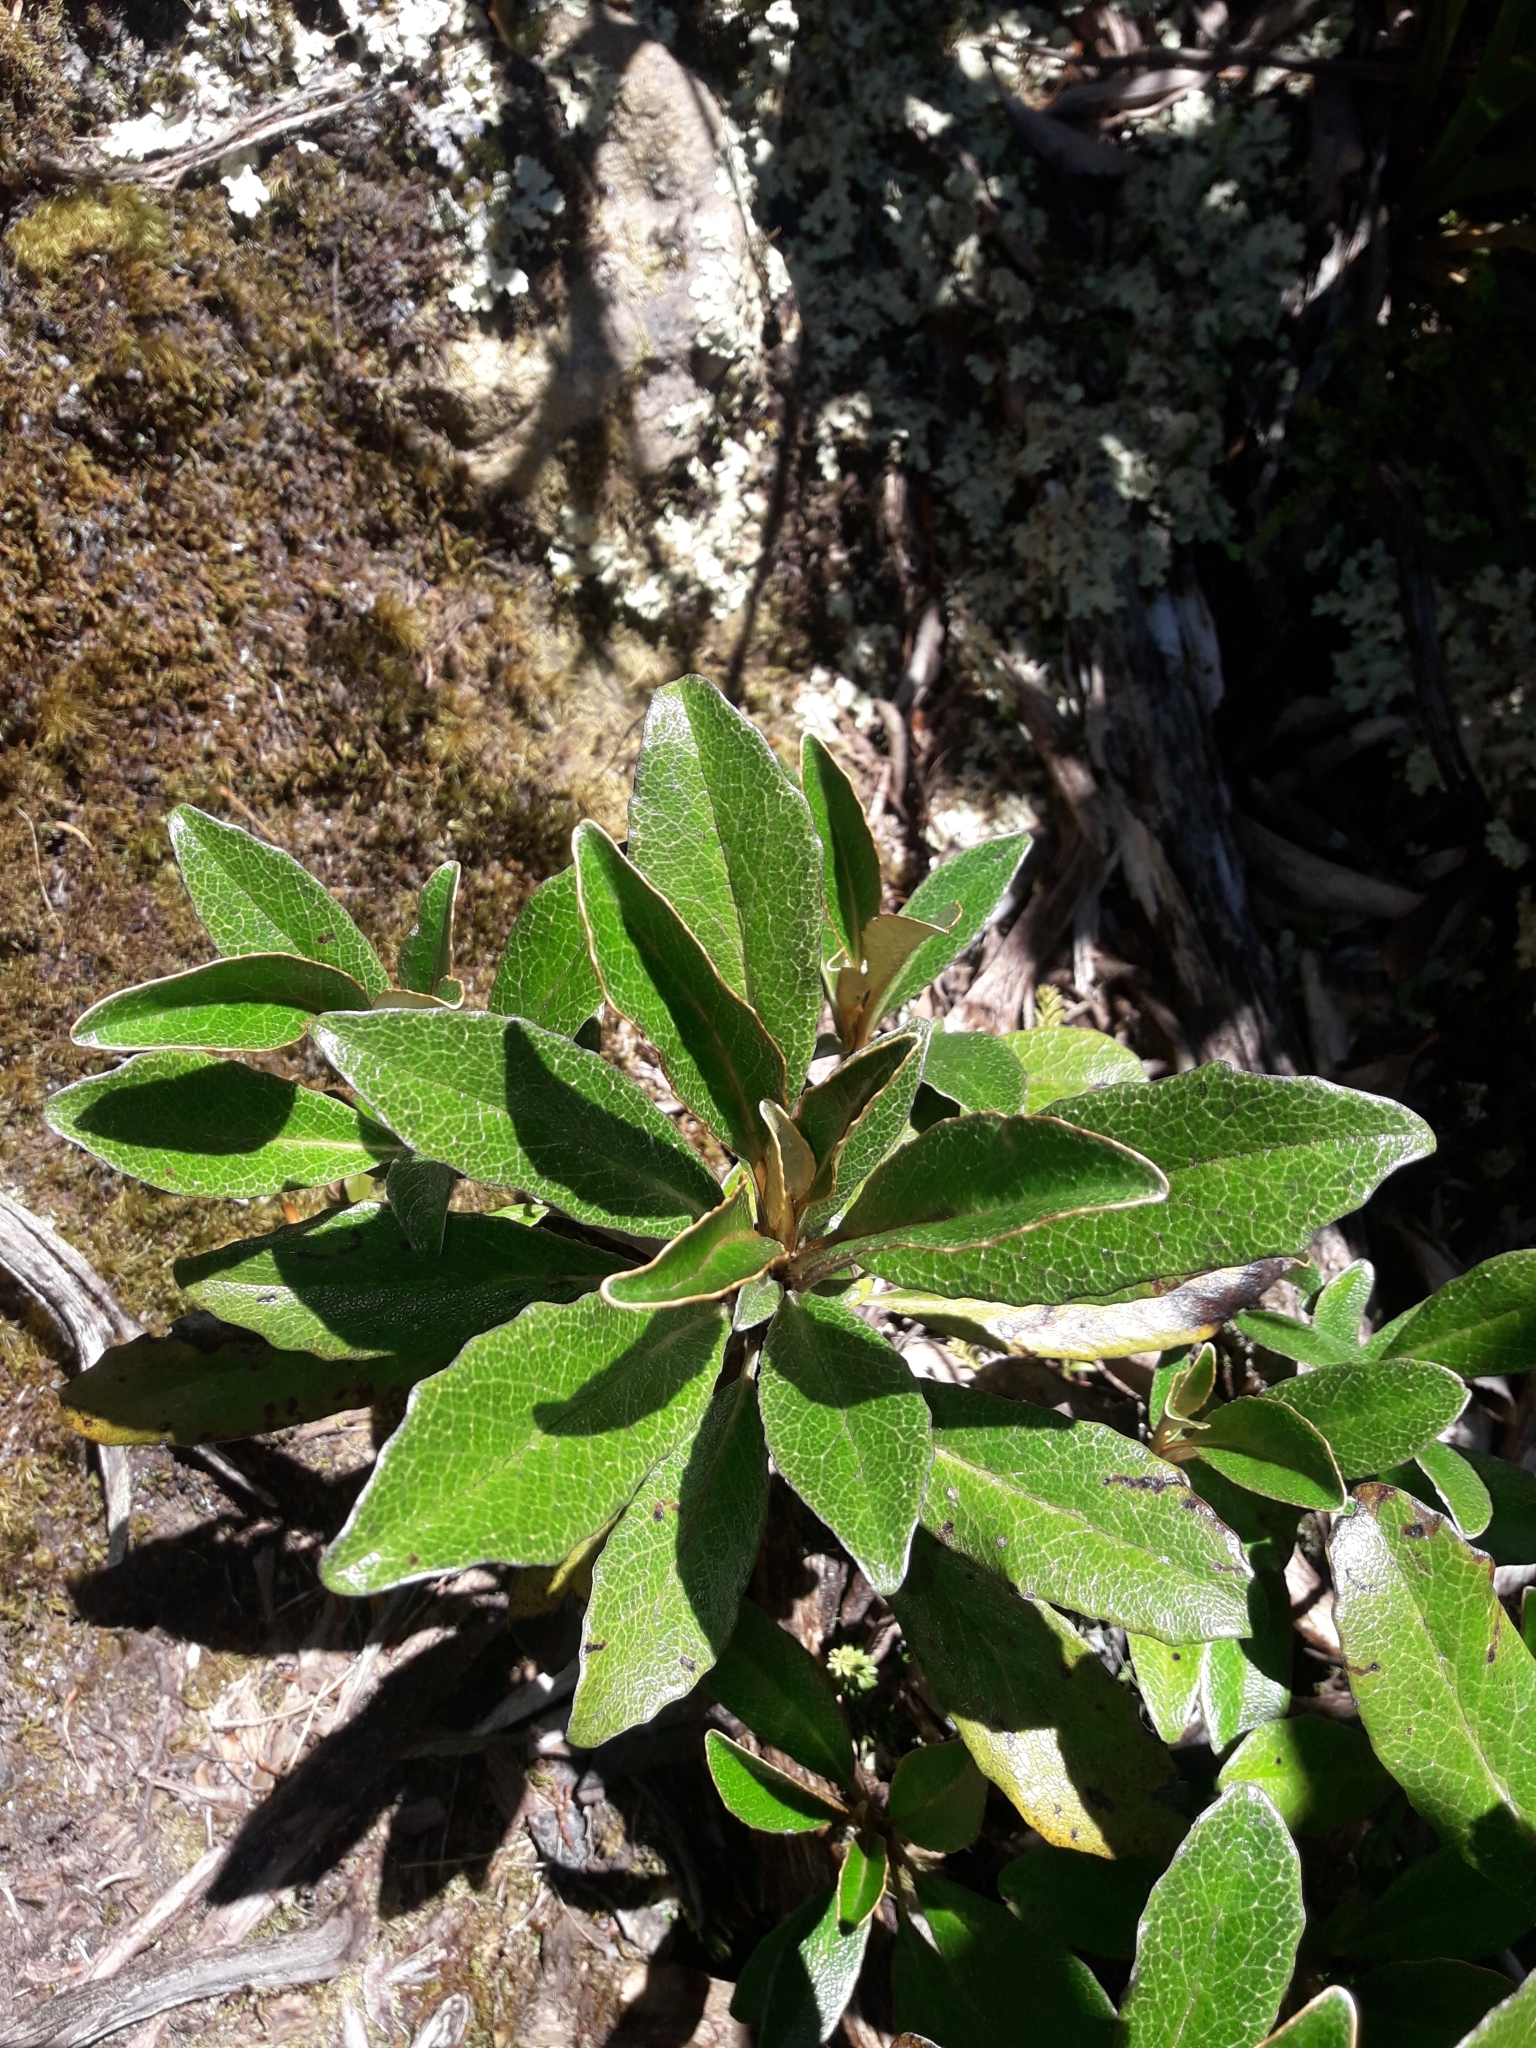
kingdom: Plantae
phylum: Tracheophyta
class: Magnoliopsida
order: Asterales
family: Asteraceae
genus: Brachyglottis
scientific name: Brachyglottis elaeagnifolia
